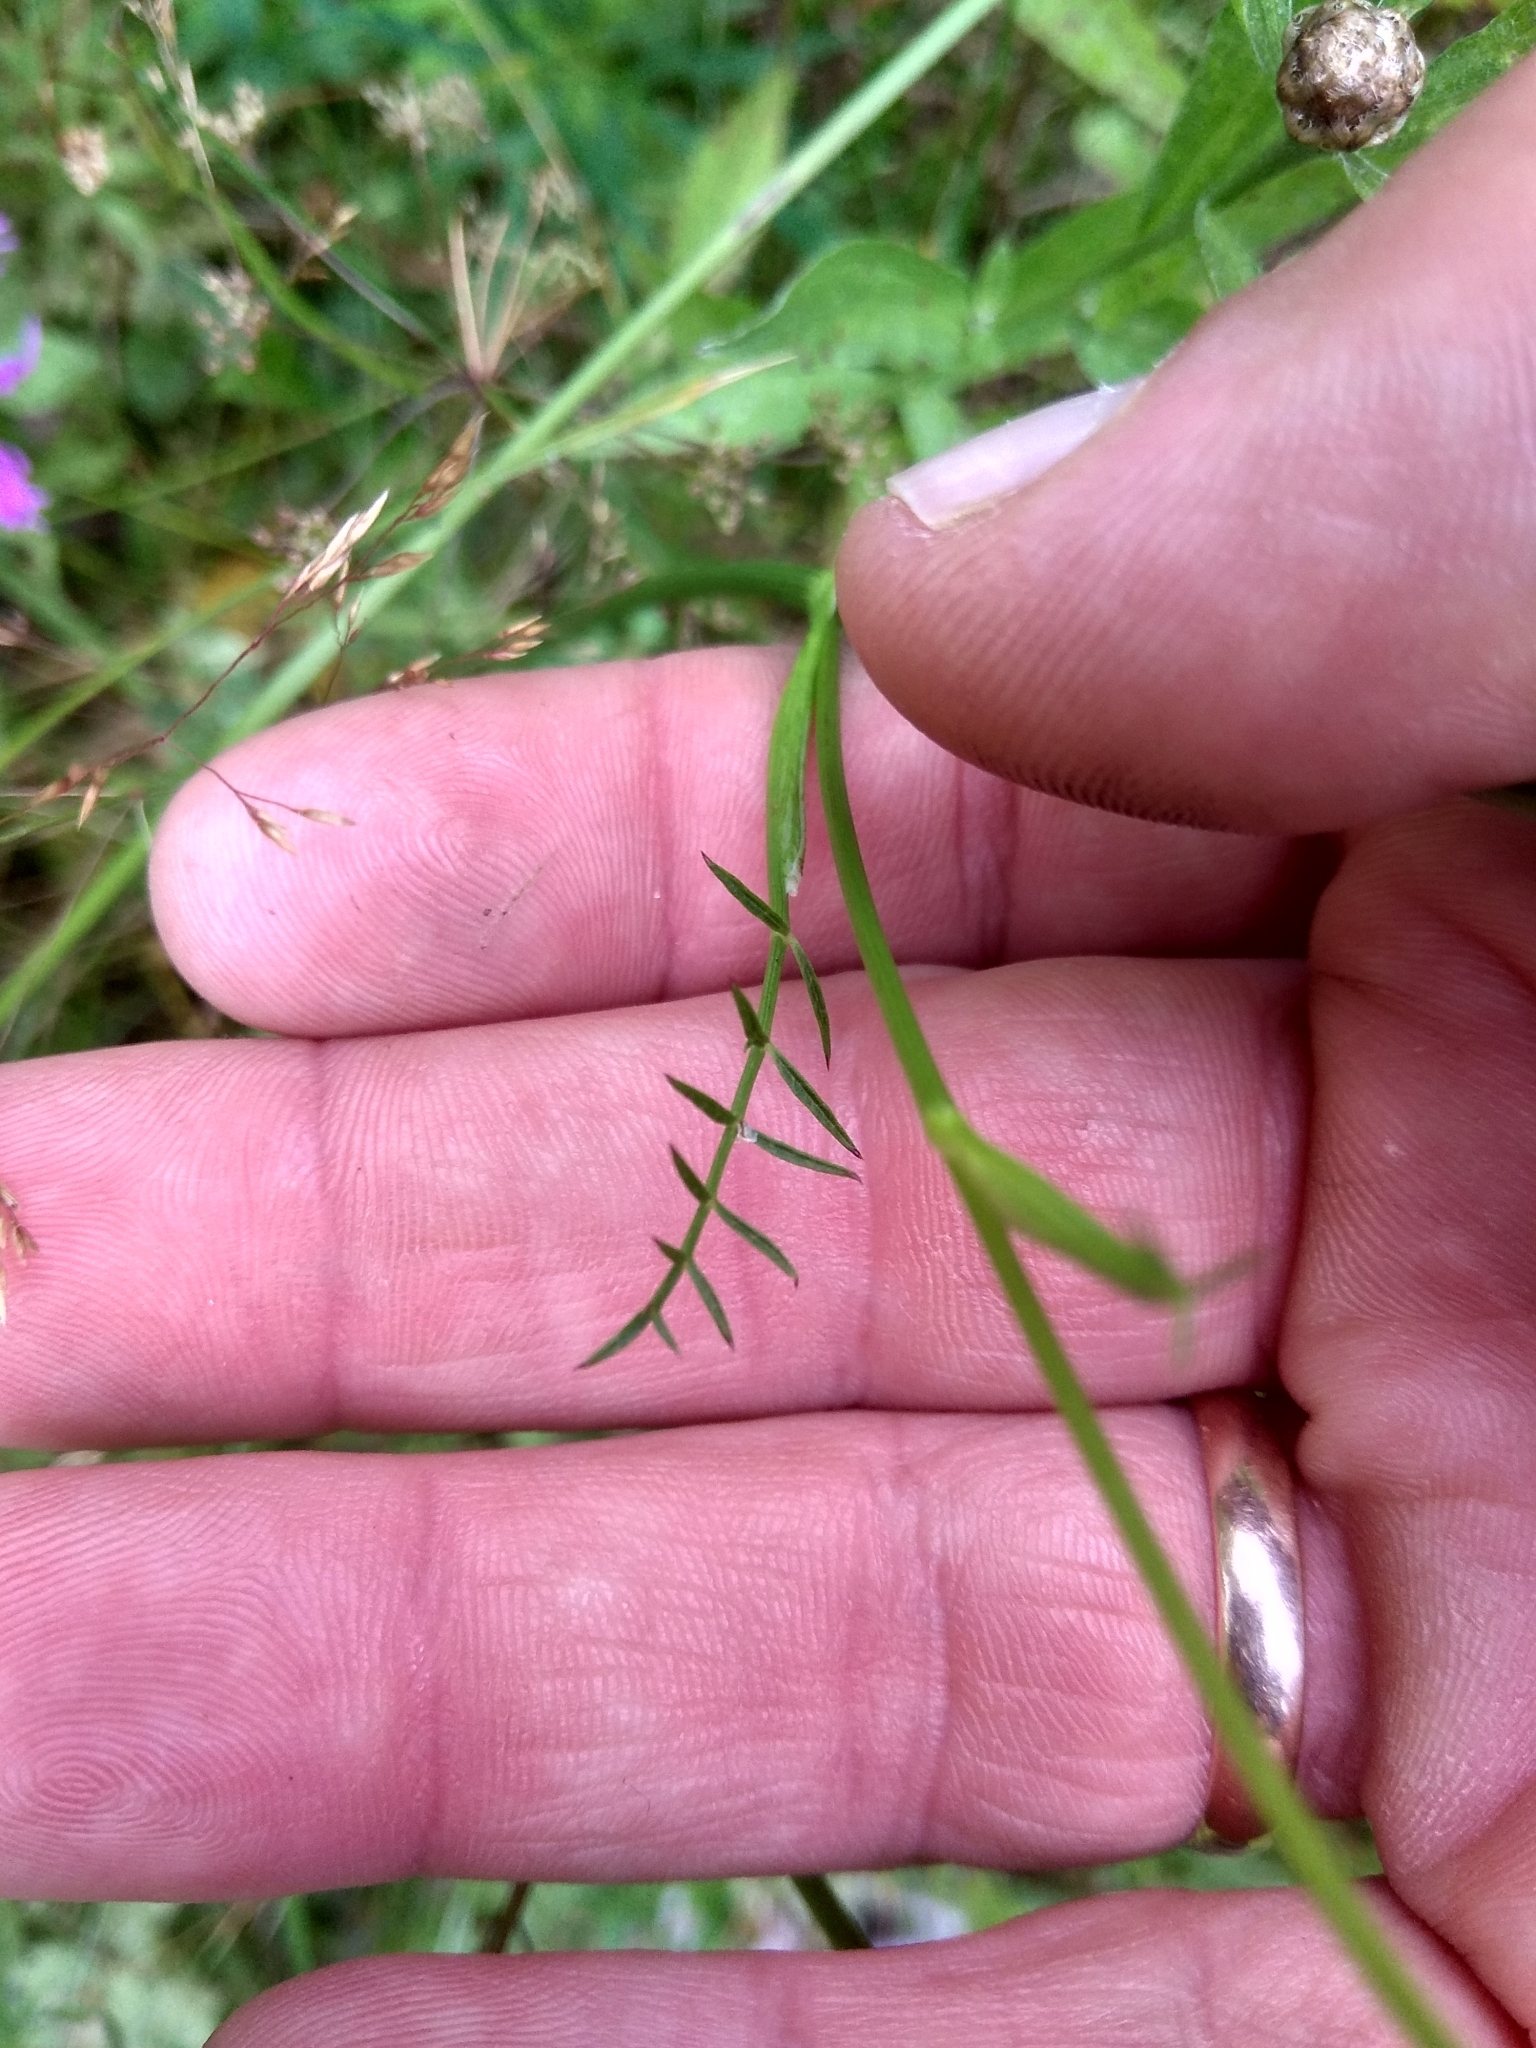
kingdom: Plantae
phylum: Tracheophyta
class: Magnoliopsida
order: Apiales
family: Apiaceae
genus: Pimpinella
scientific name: Pimpinella saxifraga
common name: Burnet-saxifrage
